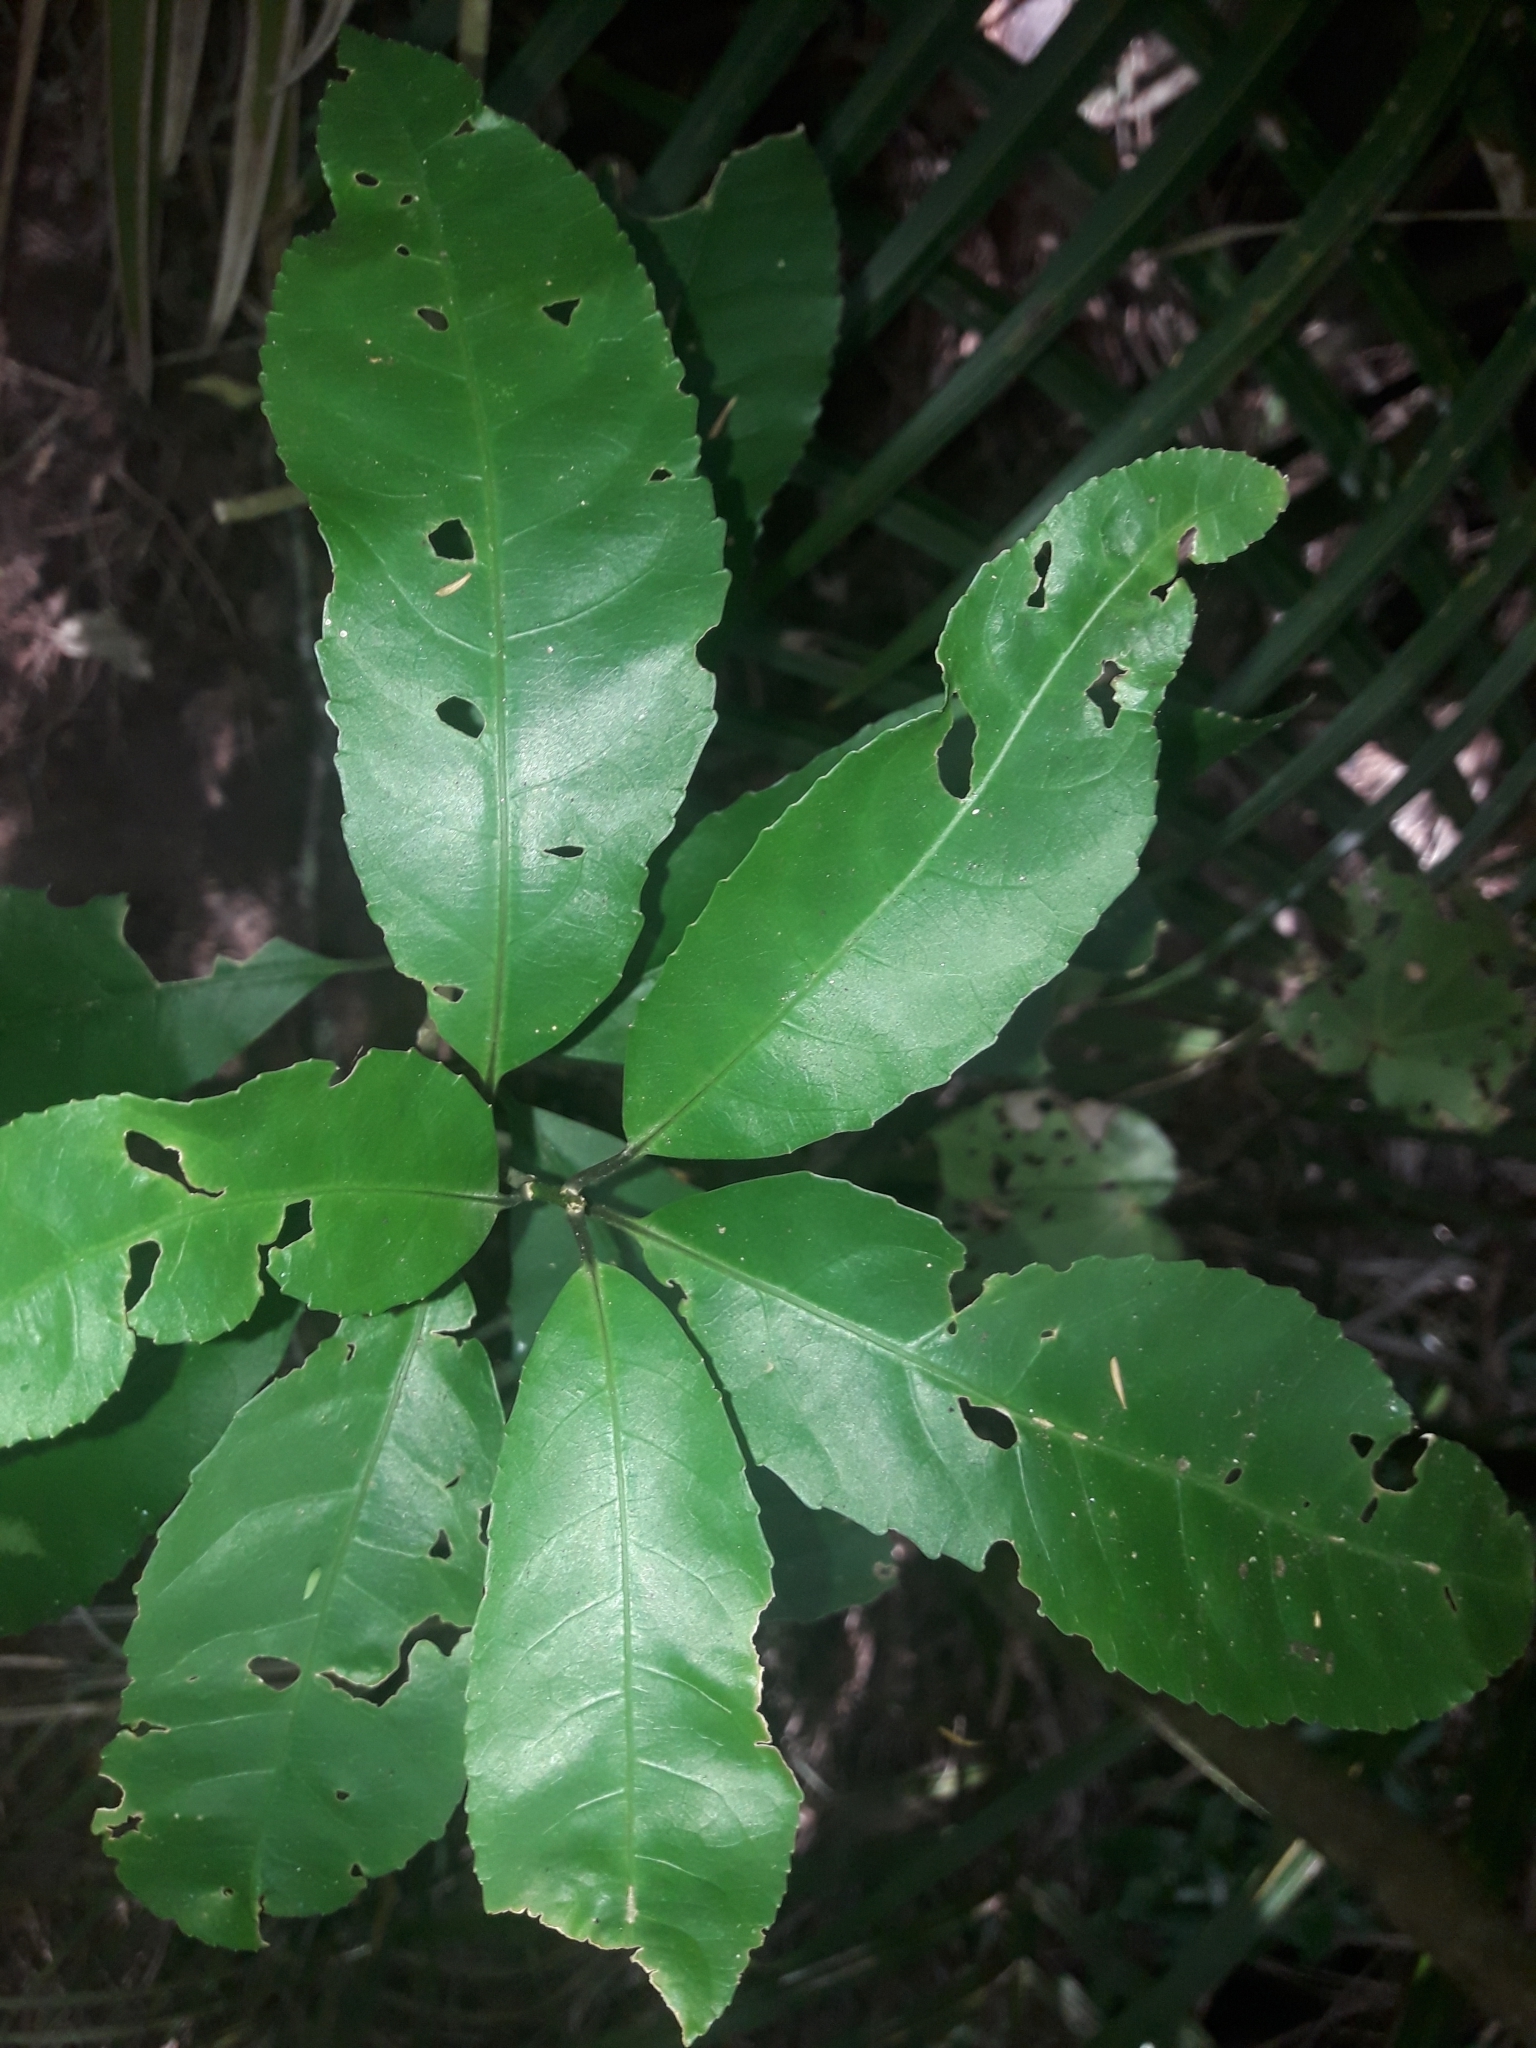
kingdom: Plantae
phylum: Tracheophyta
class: Magnoliopsida
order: Malpighiales
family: Violaceae
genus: Melicytus
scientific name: Melicytus ramiflorus
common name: Mahoe
